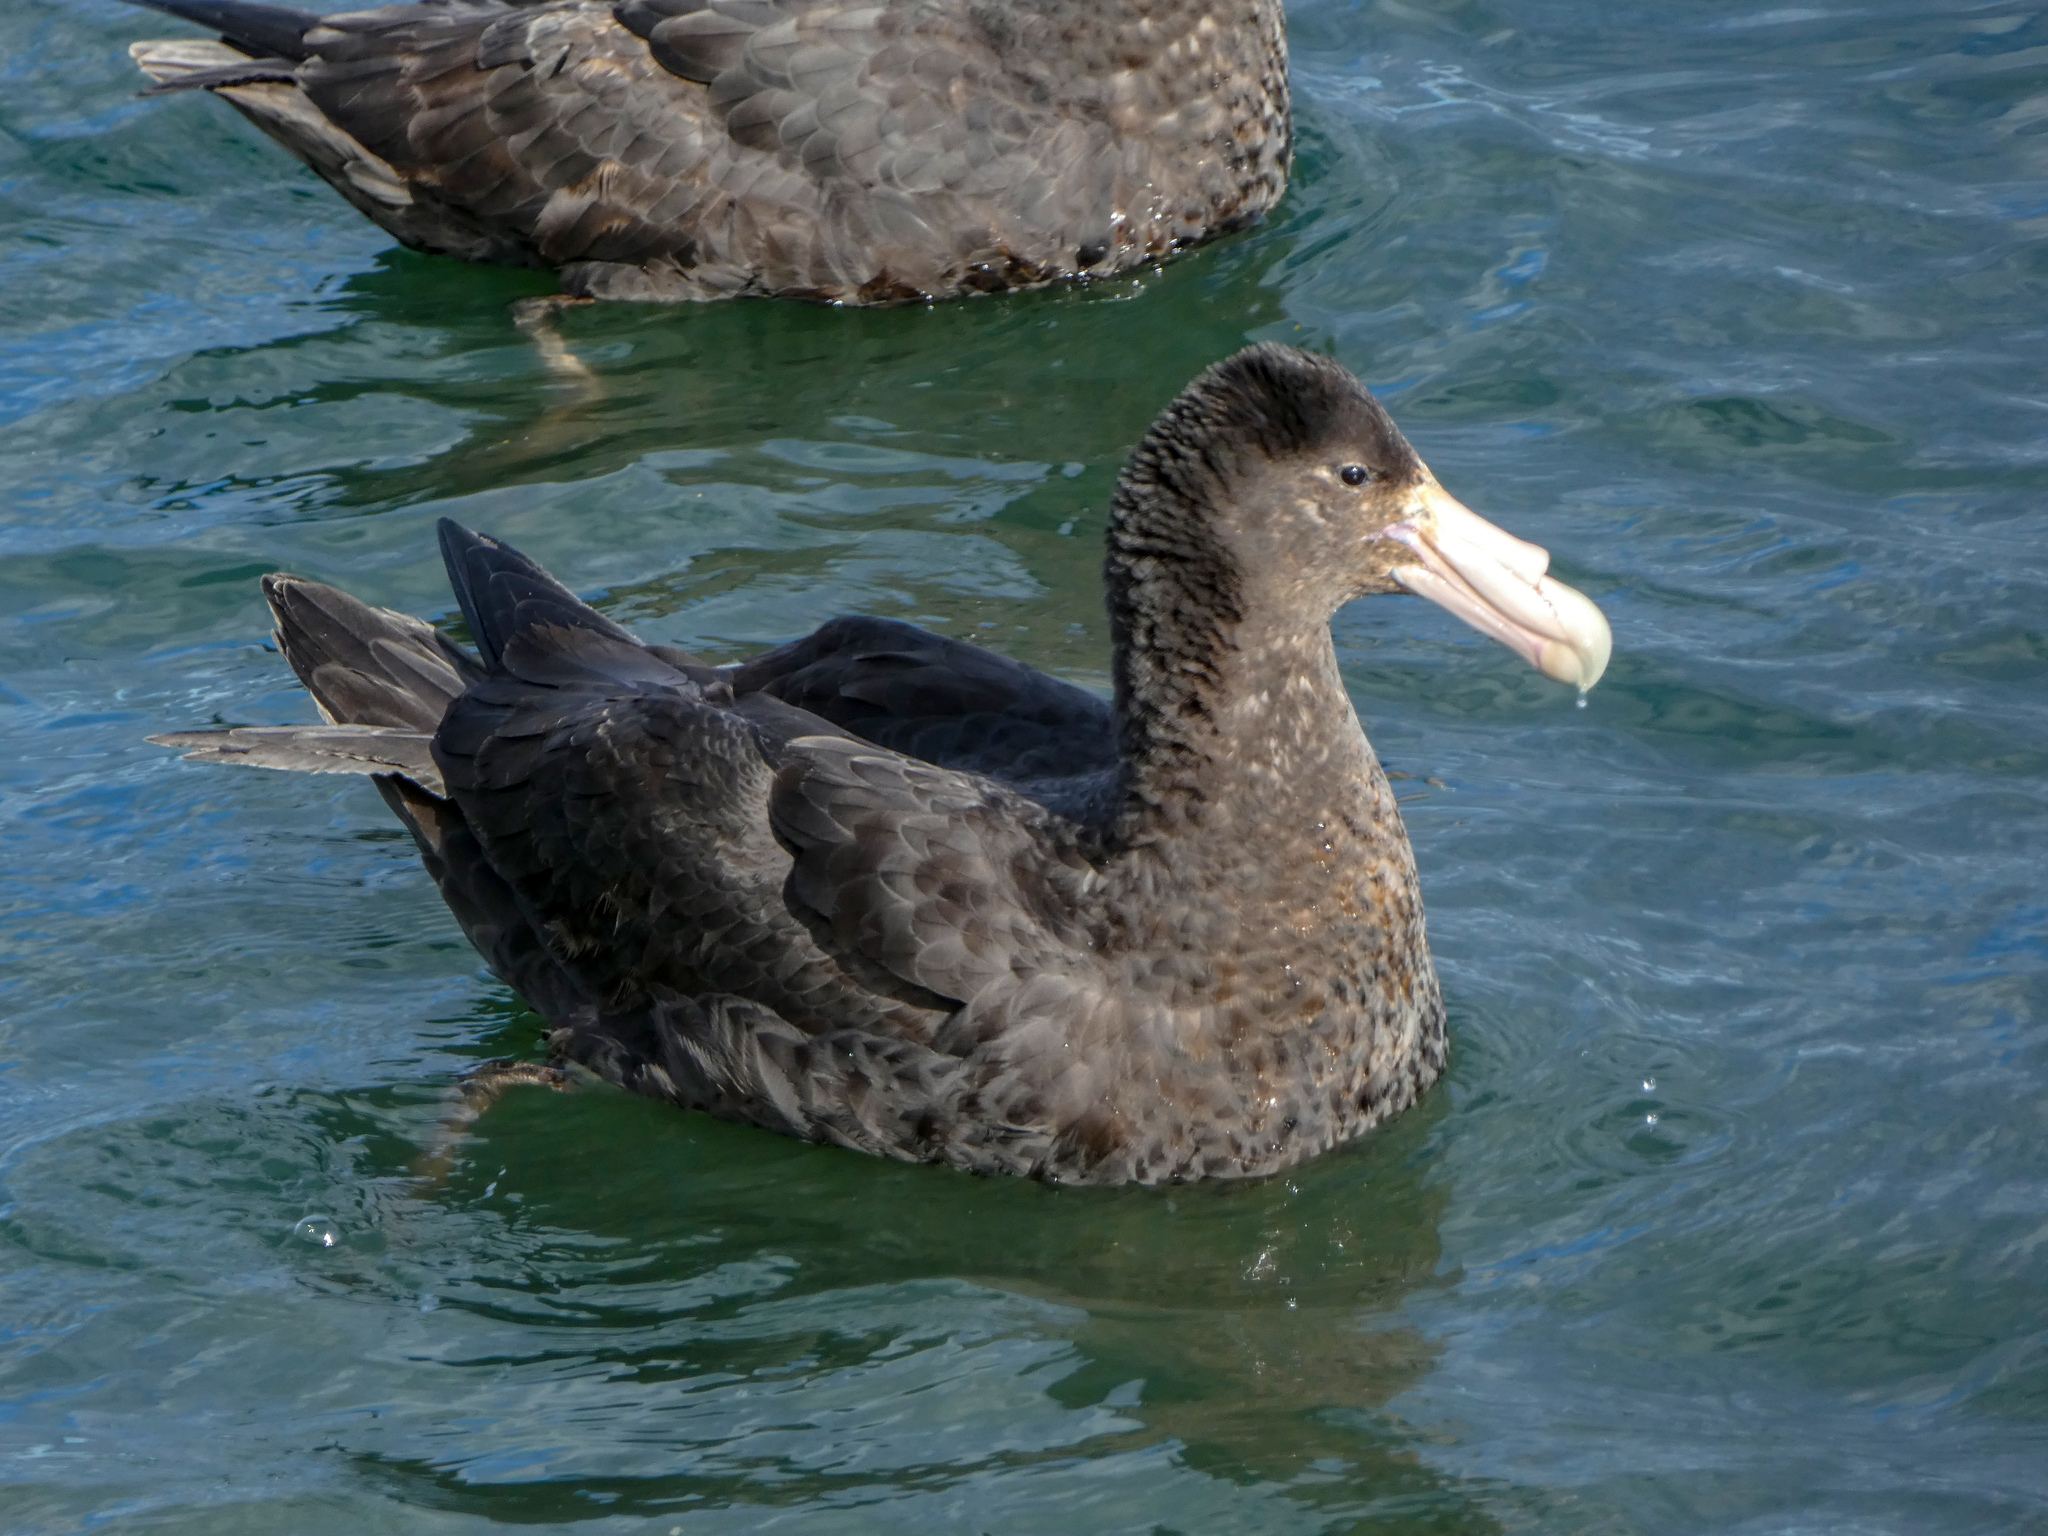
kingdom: Animalia
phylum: Chordata
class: Aves
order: Procellariiformes
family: Procellariidae
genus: Macronectes
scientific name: Macronectes giganteus
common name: Southern giant petrel
